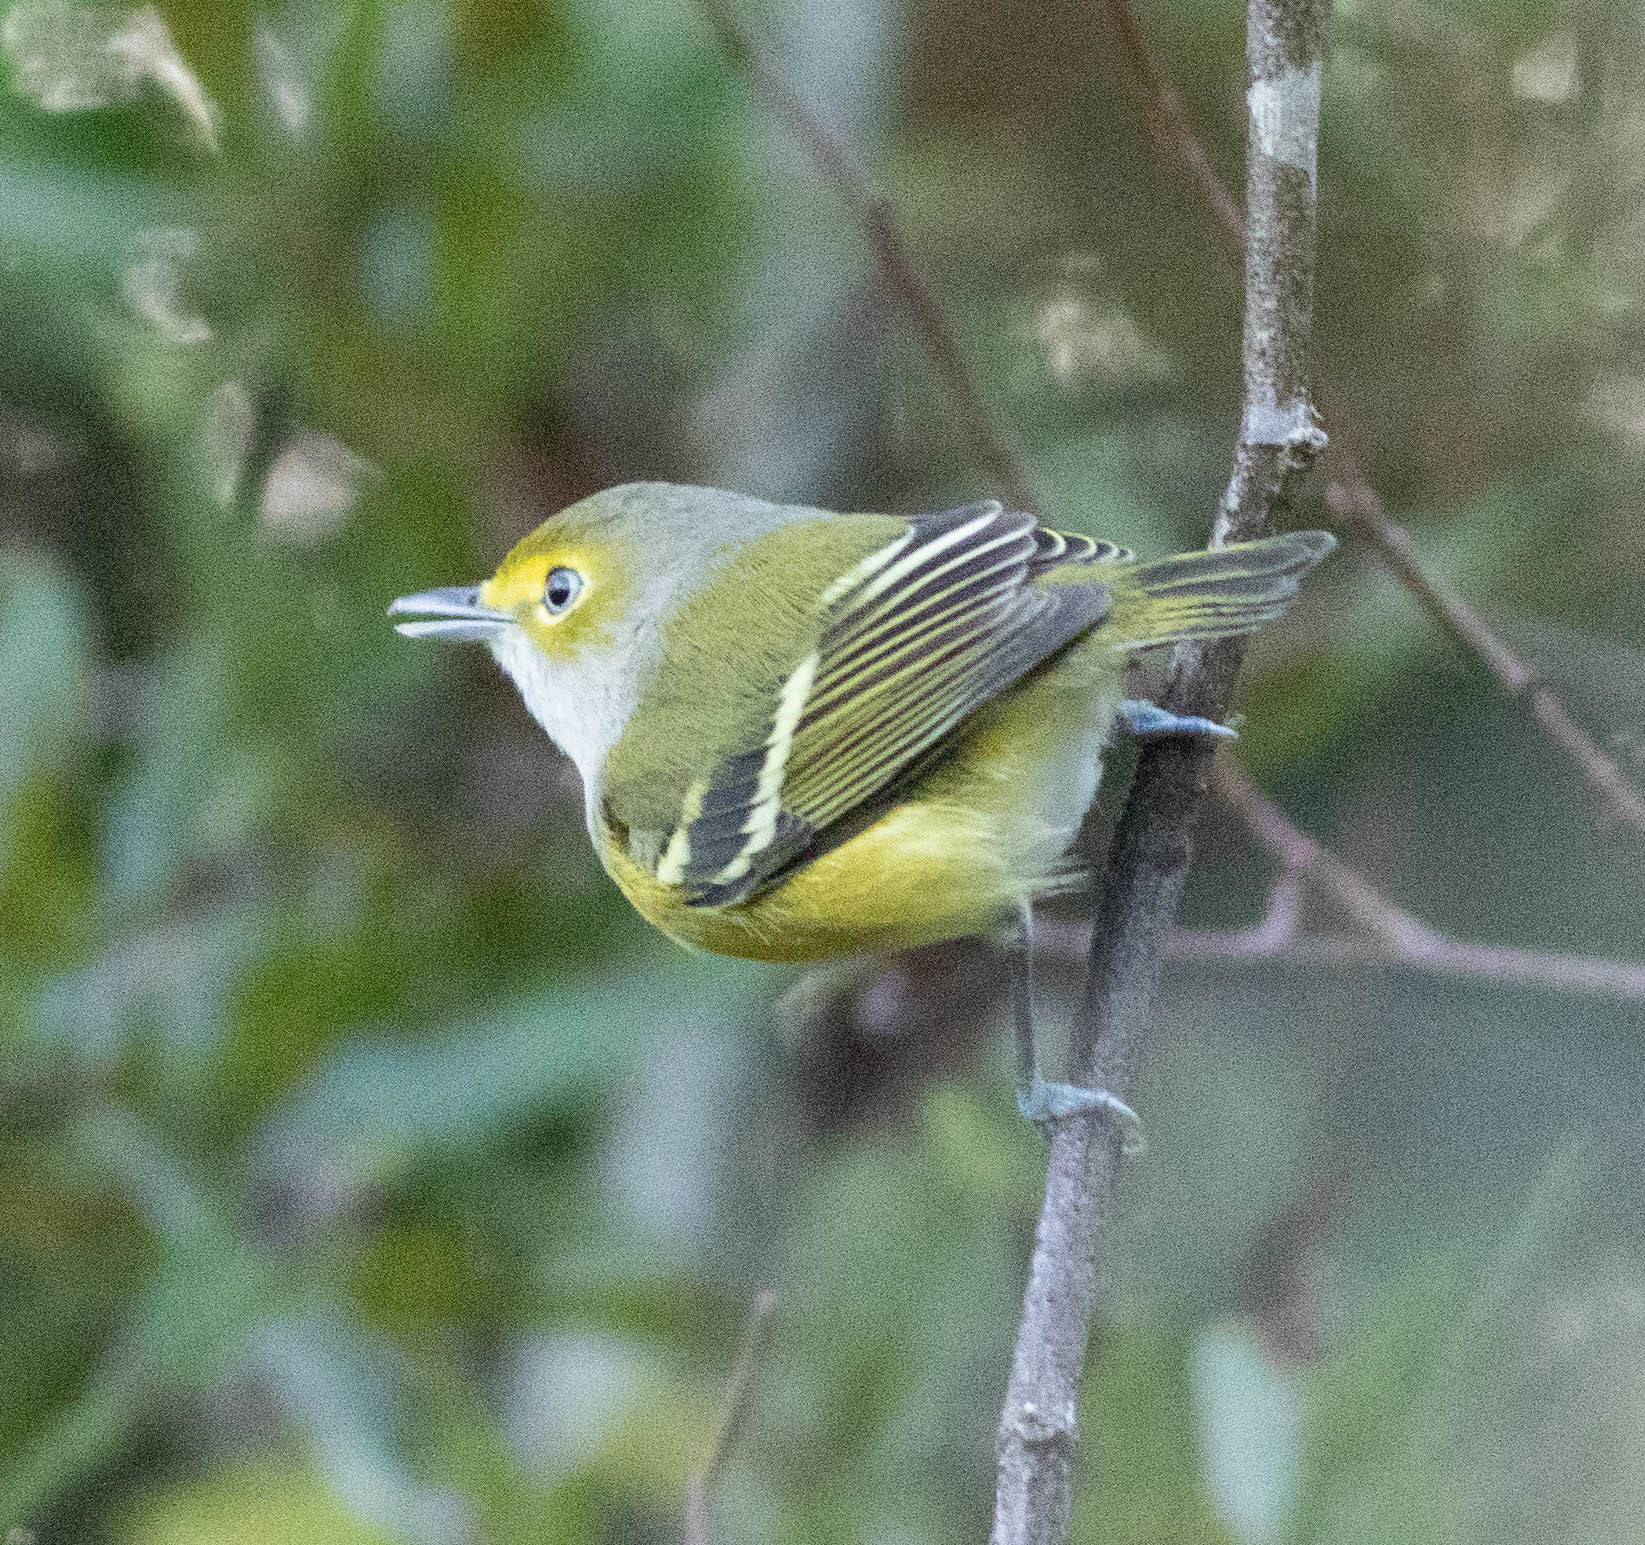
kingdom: Animalia
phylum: Chordata
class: Aves
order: Passeriformes
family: Vireonidae
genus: Vireo
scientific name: Vireo griseus
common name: White-eyed vireo
